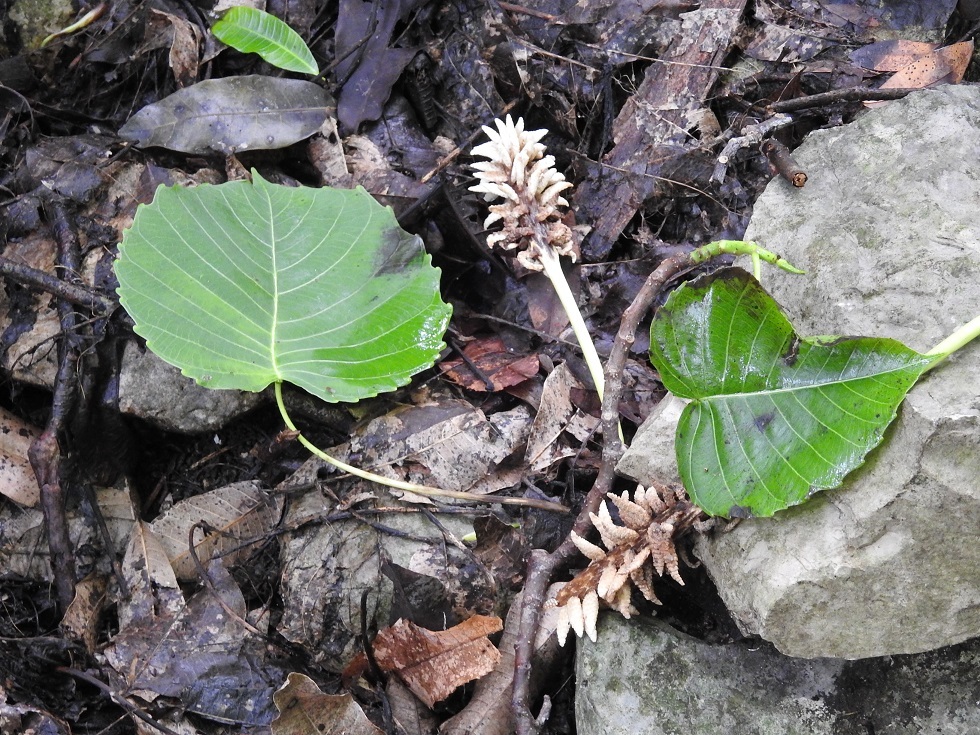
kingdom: Plantae
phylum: Tracheophyta
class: Magnoliopsida
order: Malpighiales
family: Euphorbiaceae
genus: Hura
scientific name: Hura polyandra
